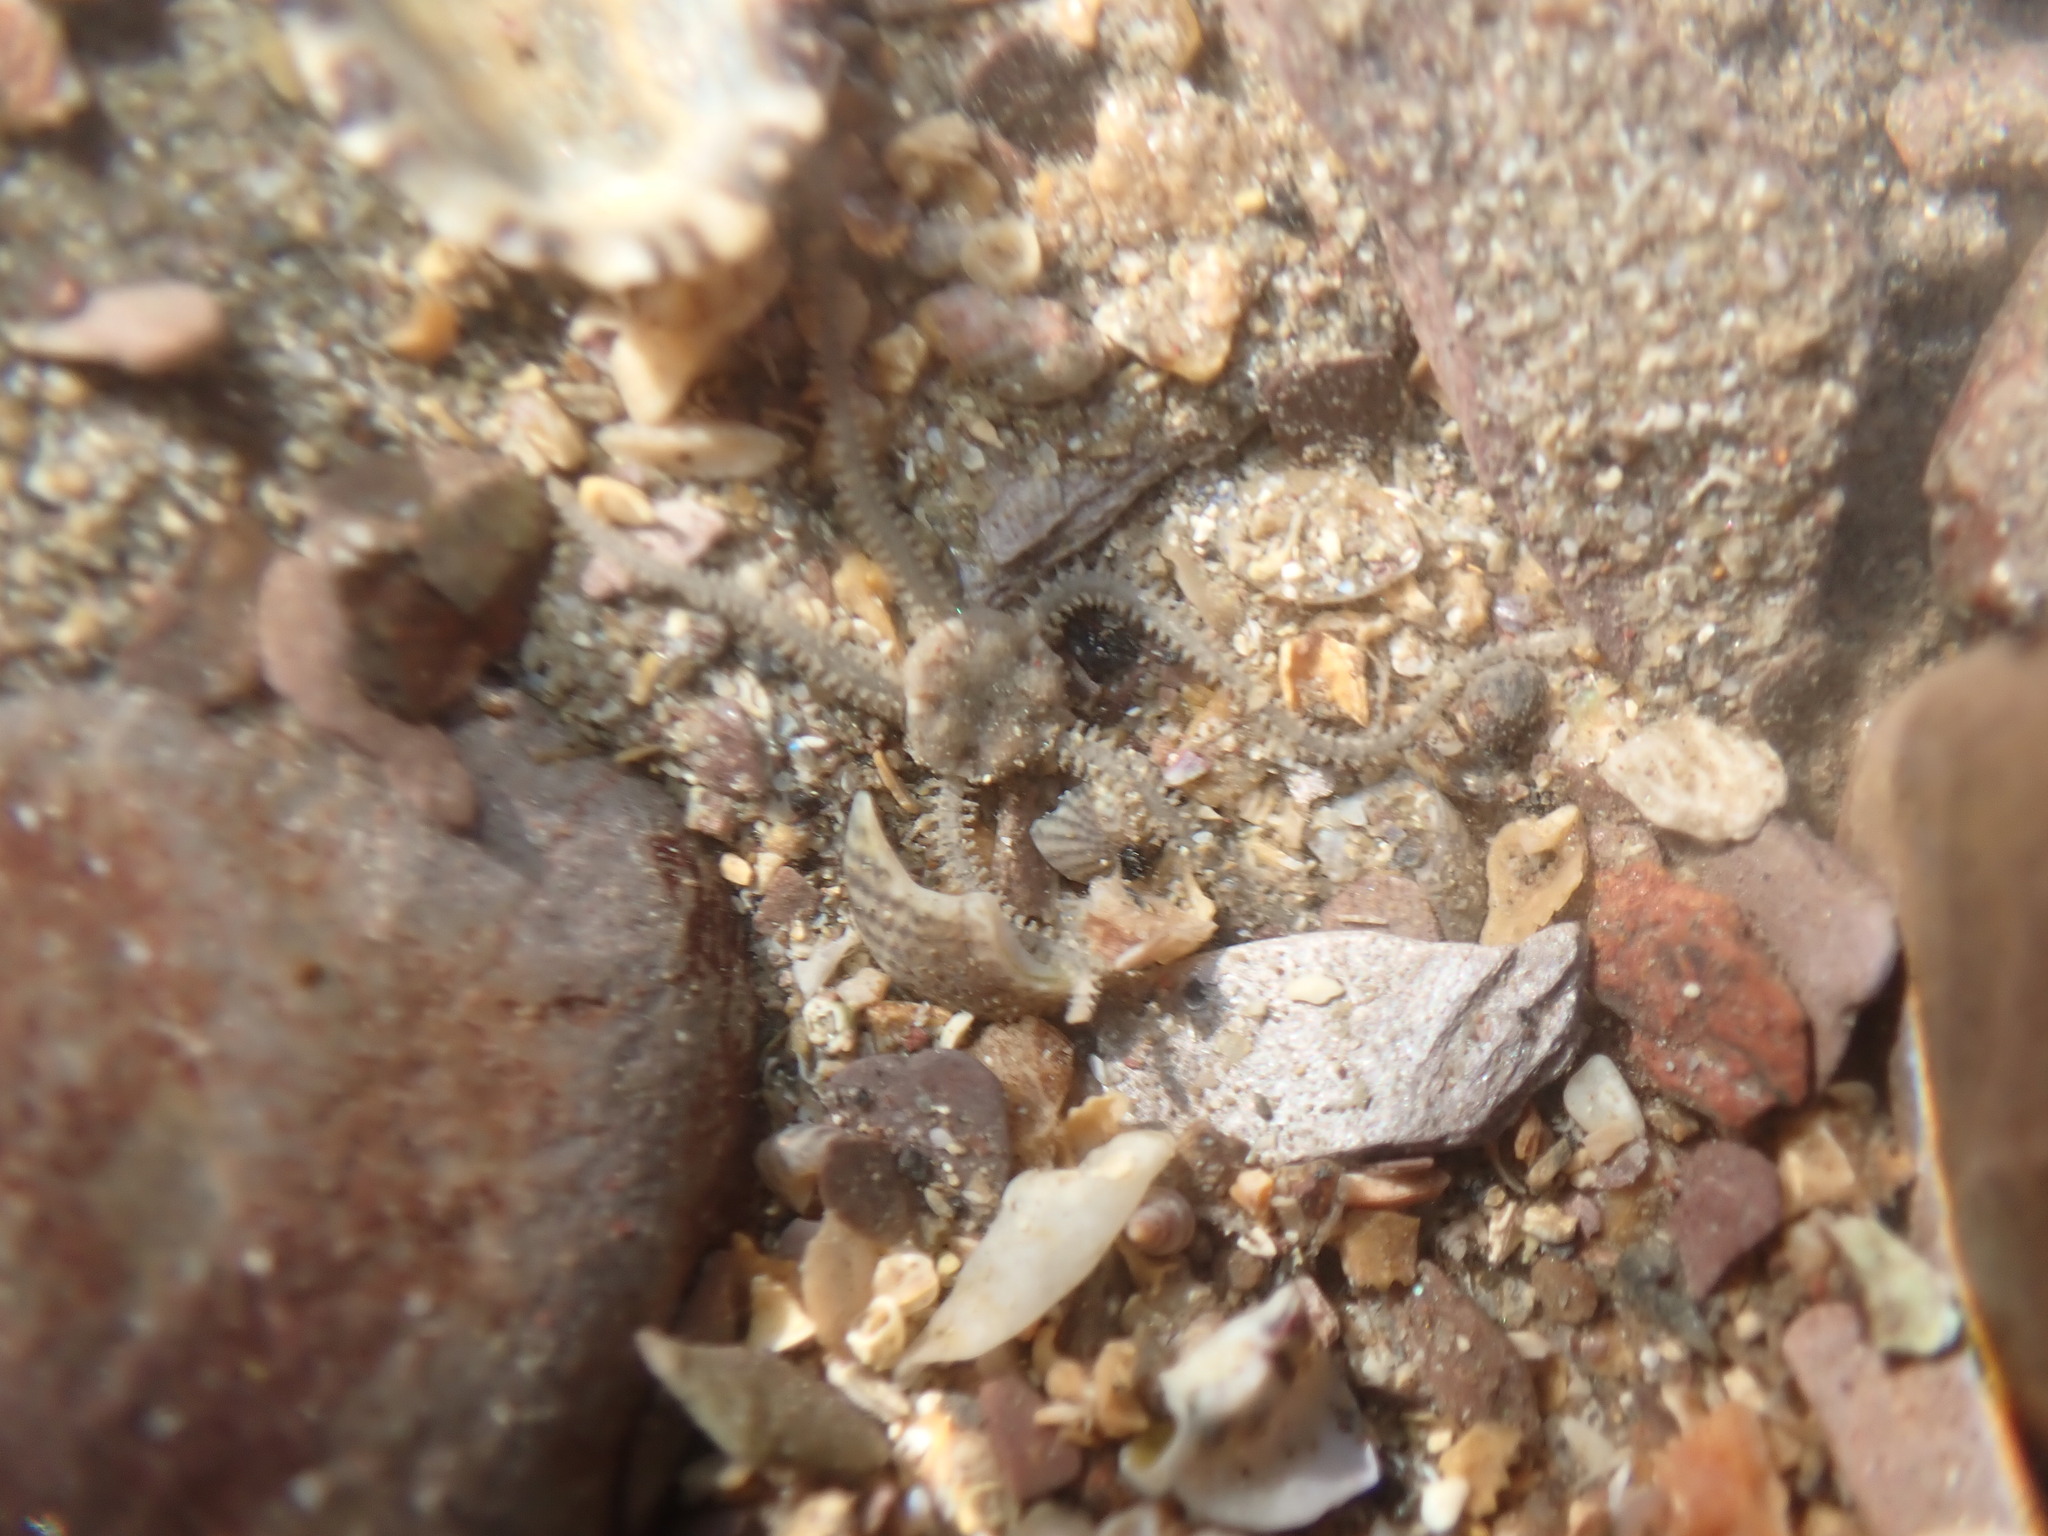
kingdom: Animalia
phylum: Echinodermata
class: Ophiuroidea
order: Amphilepidida
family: Amphiuridae
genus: Amphipholis
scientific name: Amphipholis squamata
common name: Brooding snake star
